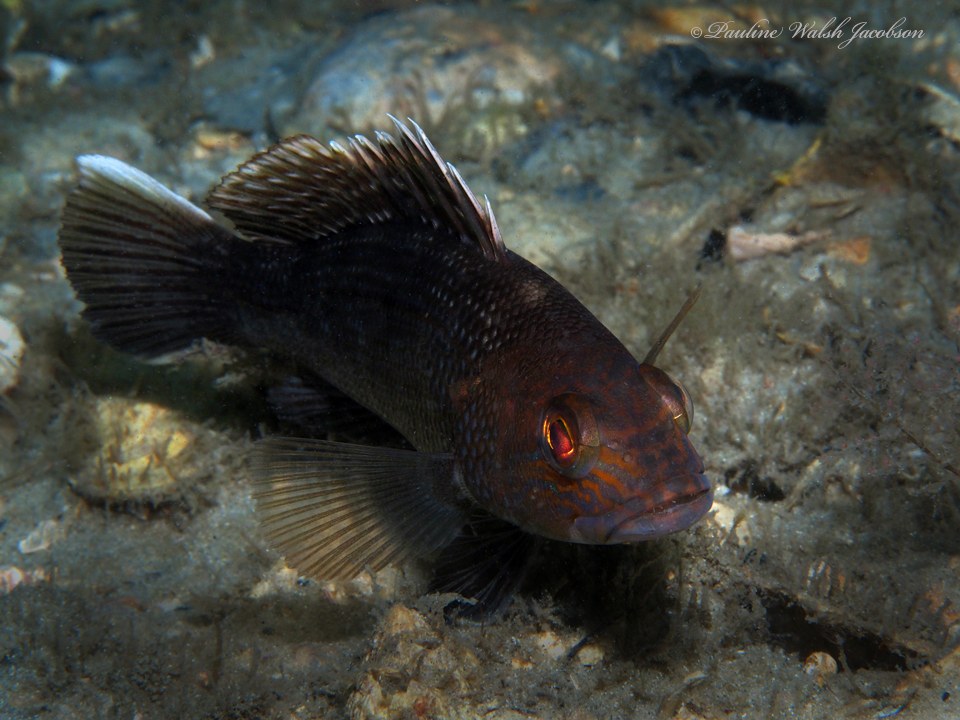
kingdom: Animalia
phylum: Chordata
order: Perciformes
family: Serranidae
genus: Centropristis
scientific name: Centropristis striata
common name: Black sea bass
